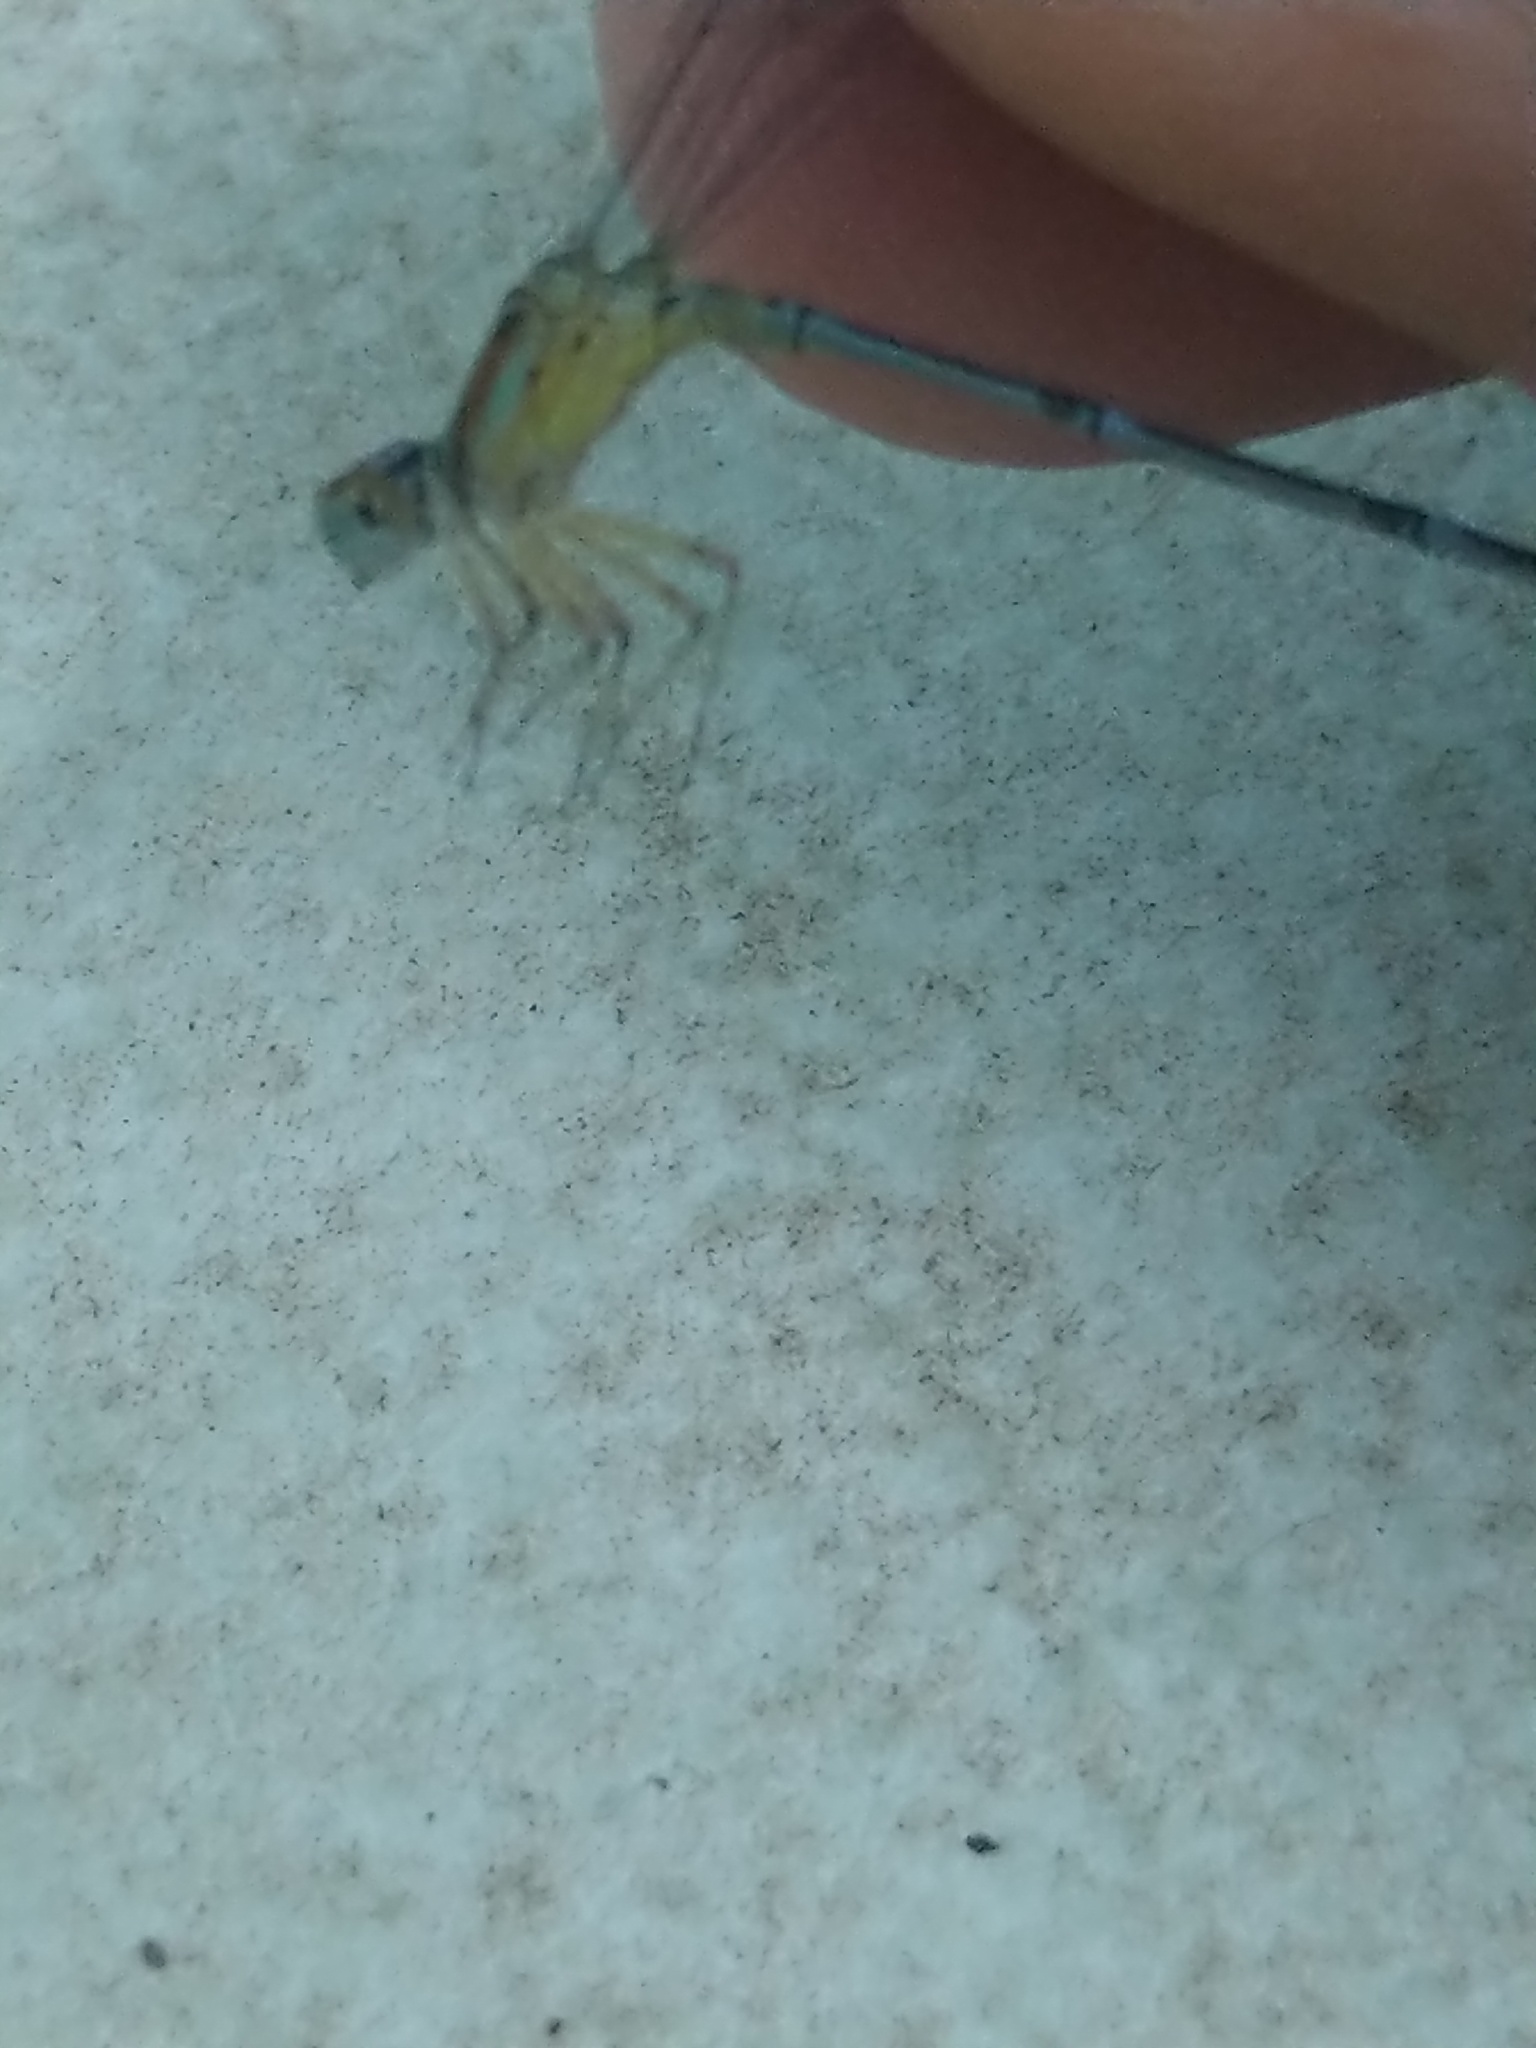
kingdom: Animalia
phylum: Arthropoda
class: Insecta
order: Odonata
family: Coenagrionidae
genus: Pseudagrion
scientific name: Pseudagrion microcephalum
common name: Blue riverdamsel
